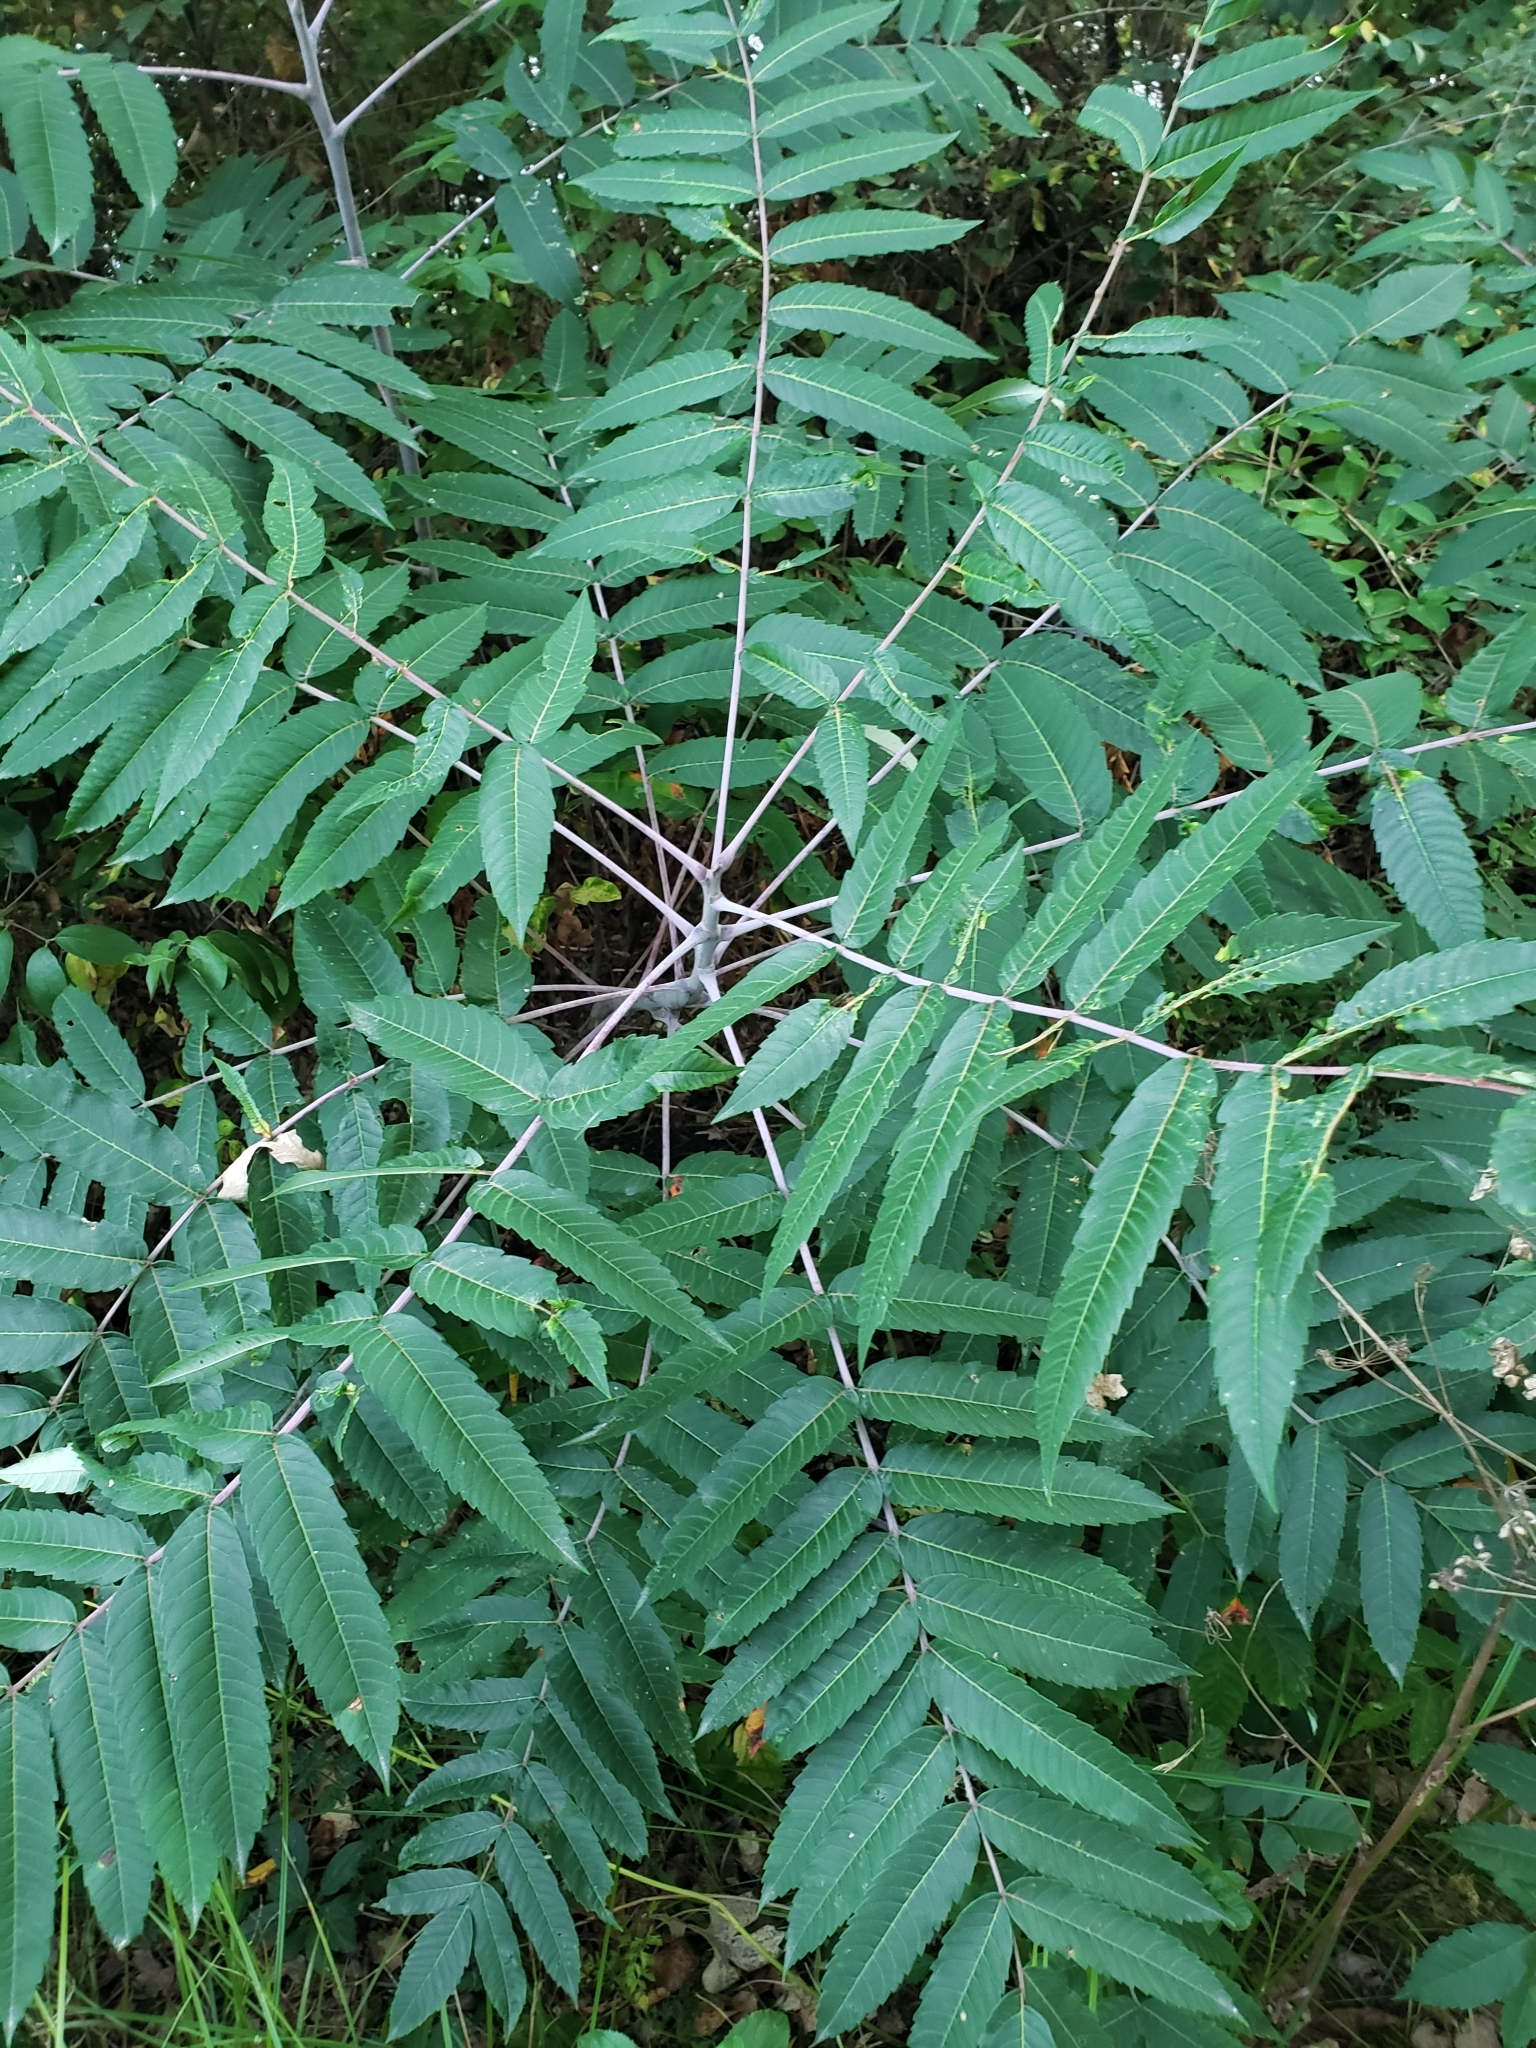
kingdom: Plantae
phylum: Tracheophyta
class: Magnoliopsida
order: Sapindales
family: Anacardiaceae
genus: Rhus
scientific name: Rhus glabra
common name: Scarlet sumac
